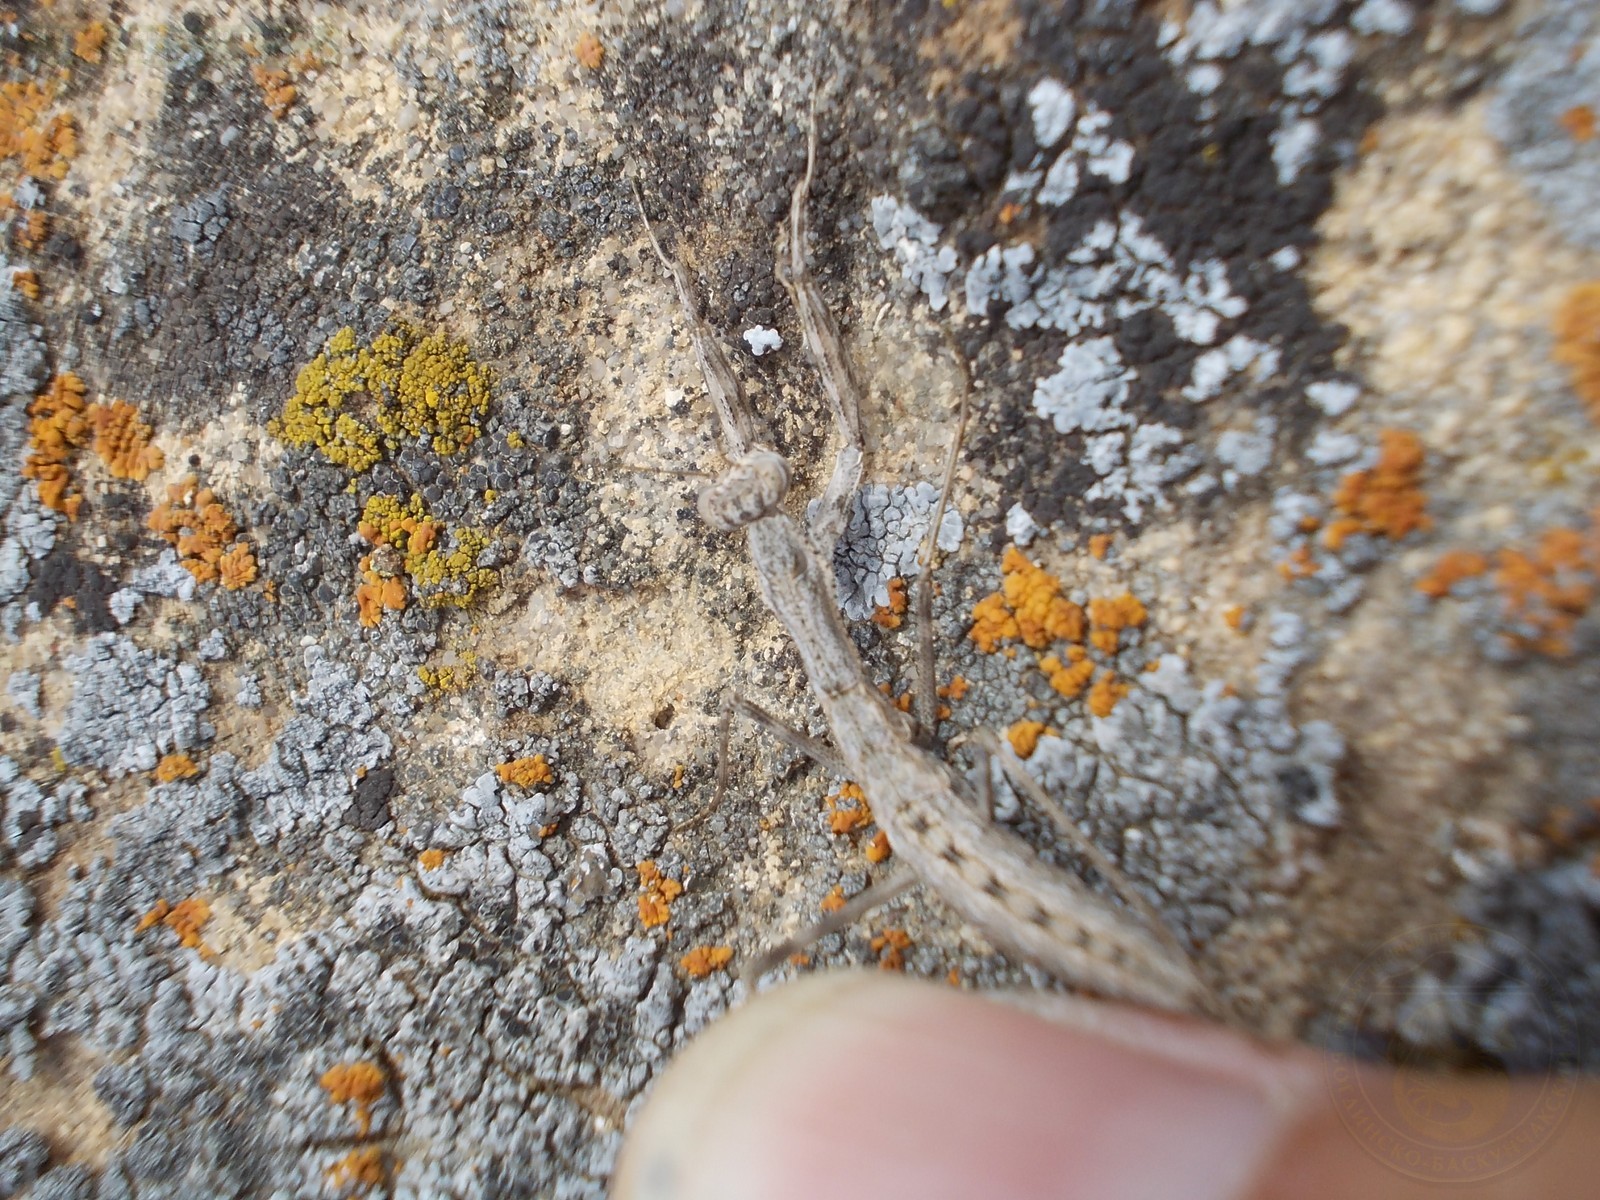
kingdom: Animalia
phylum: Arthropoda
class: Insecta
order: Mantodea
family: Rivetinidae
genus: Bolivaria
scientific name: Bolivaria brachyptera
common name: Bolivar's short winged mantis
